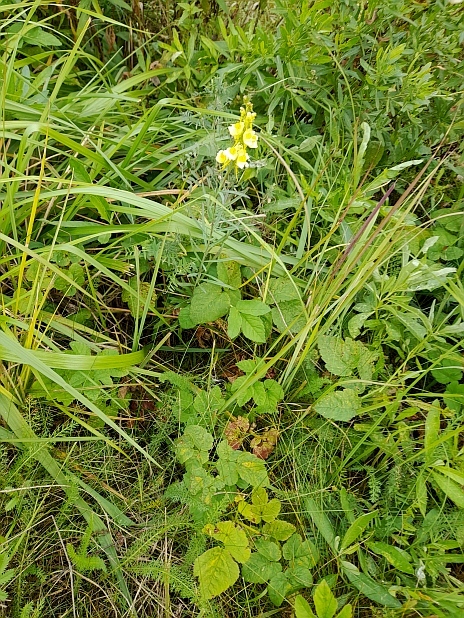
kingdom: Plantae
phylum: Tracheophyta
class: Magnoliopsida
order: Apiales
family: Apiaceae
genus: Aegopodium
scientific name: Aegopodium podagraria
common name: Ground-elder
